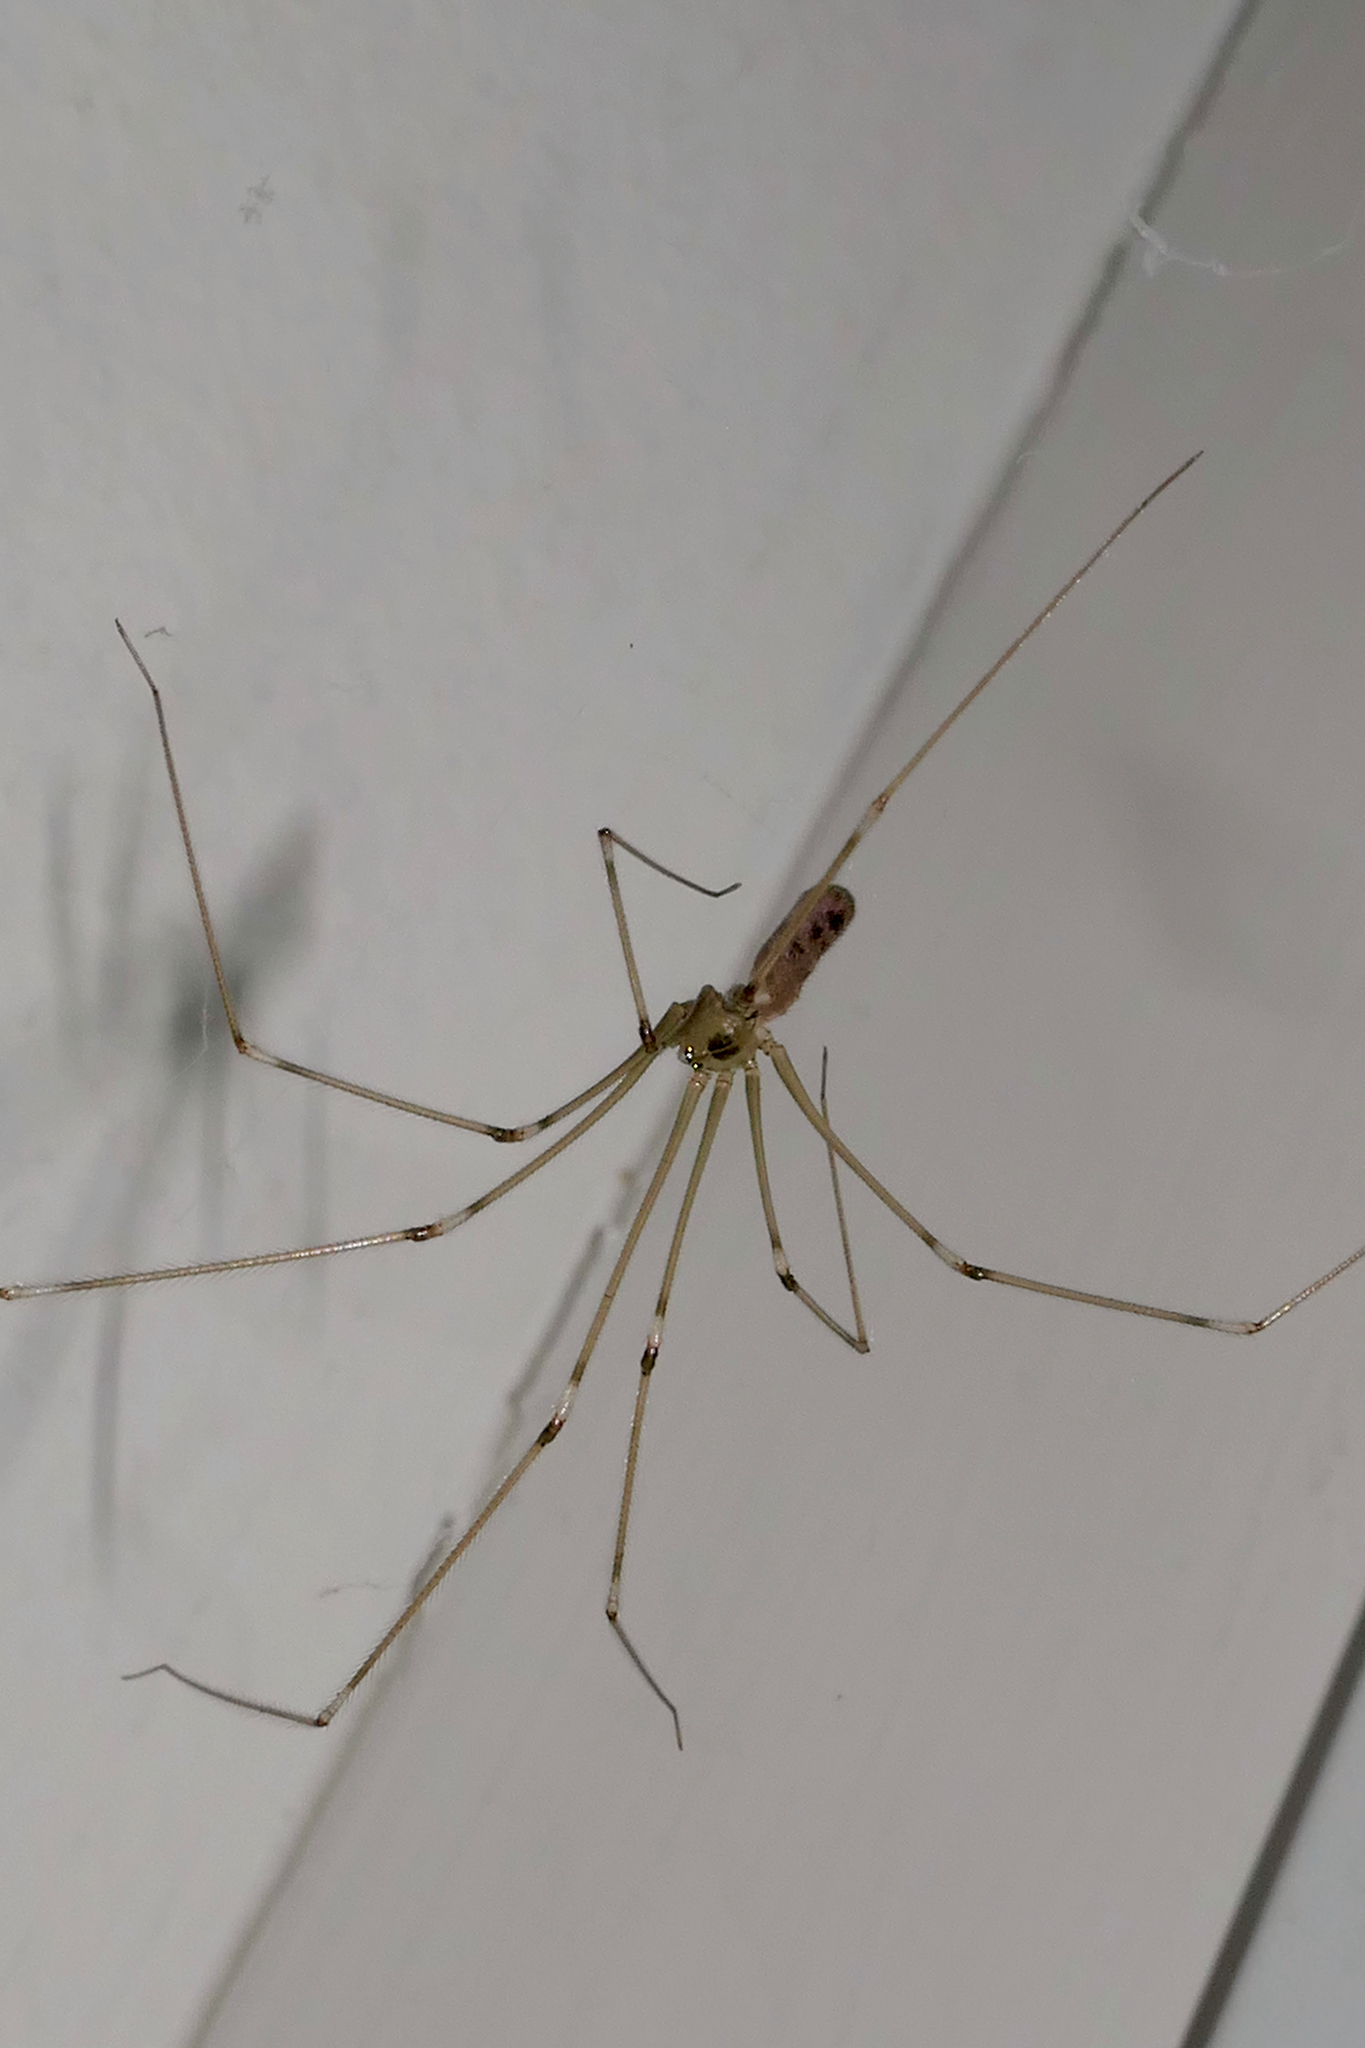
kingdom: Animalia
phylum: Arthropoda
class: Arachnida
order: Araneae
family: Pholcidae
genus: Pholcus
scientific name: Pholcus phalangioides
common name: Longbodied cellar spider
